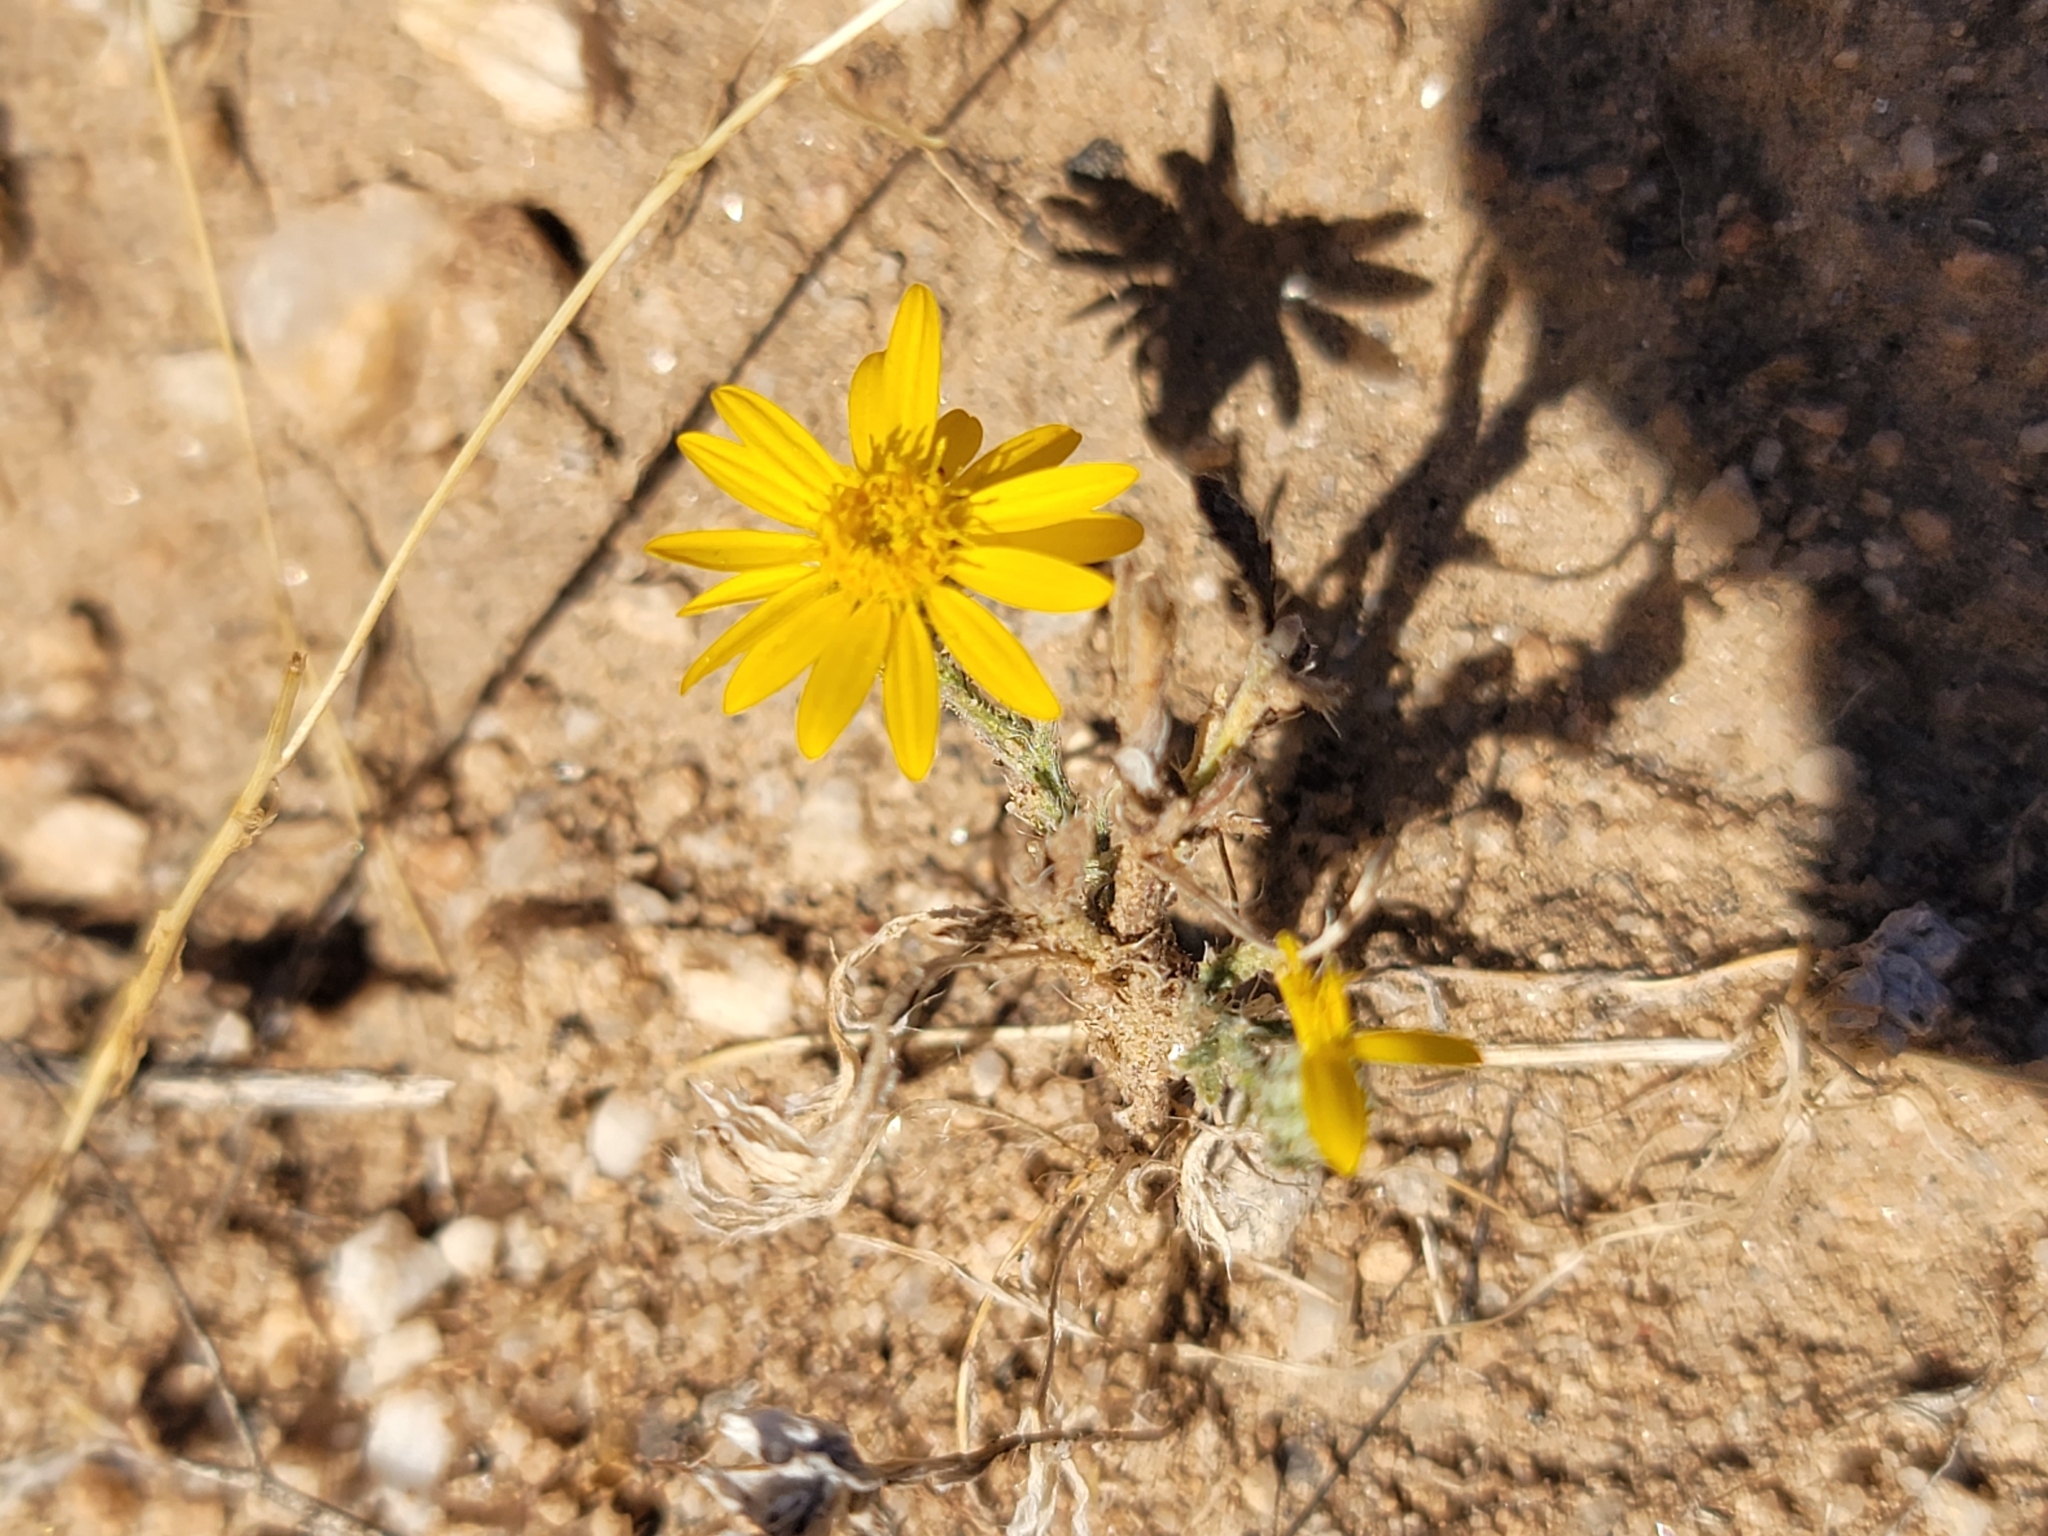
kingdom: Plantae
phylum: Tracheophyta
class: Magnoliopsida
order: Asterales
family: Asteraceae
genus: Xanthisma
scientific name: Xanthisma spinulosum
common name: Spiny goldenweed
